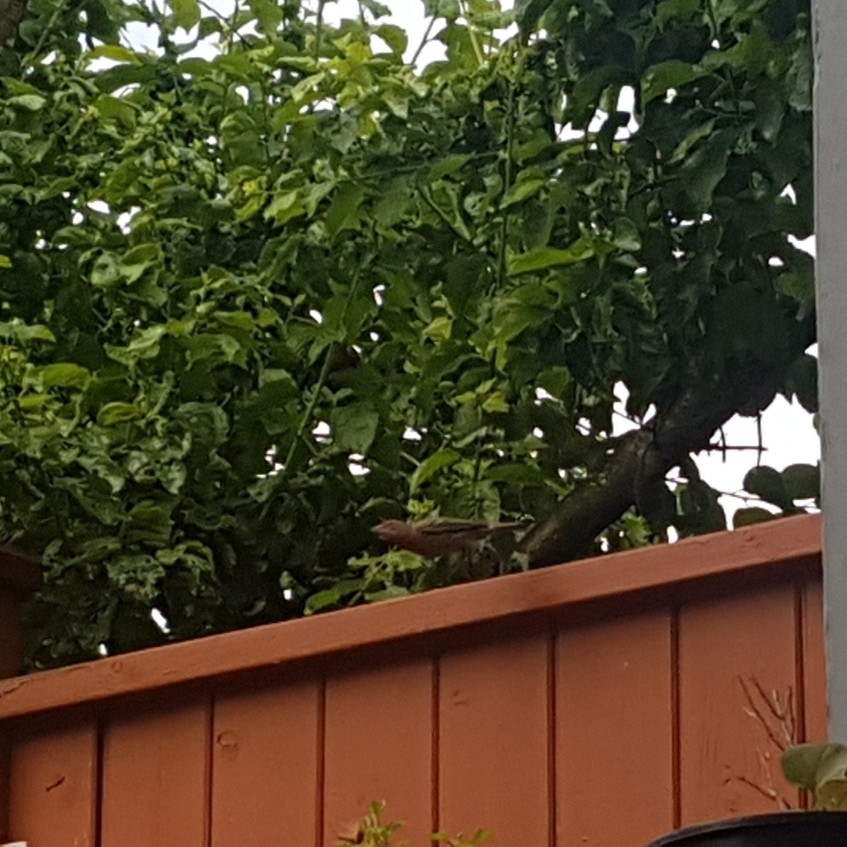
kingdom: Animalia
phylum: Chordata
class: Aves
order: Passeriformes
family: Fringillidae
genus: Haemorhous
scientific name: Haemorhous mexicanus
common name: House finch
